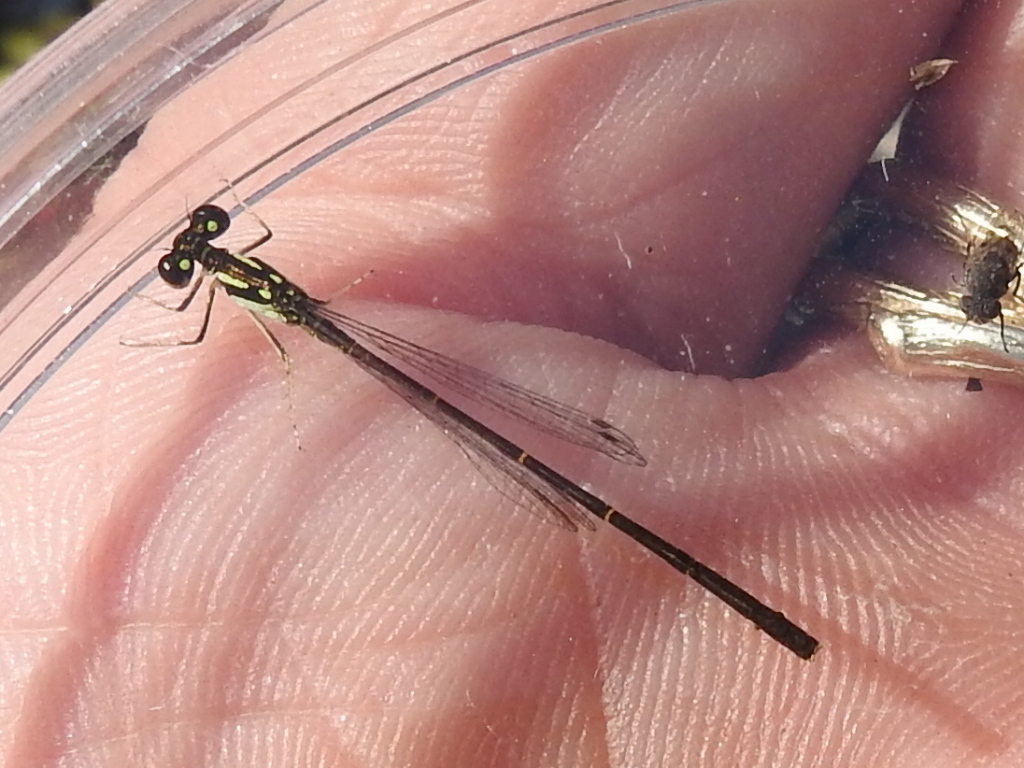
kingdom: Animalia
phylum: Arthropoda
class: Insecta
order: Odonata
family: Coenagrionidae
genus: Ischnura
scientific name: Ischnura posita
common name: Fragile forktail
